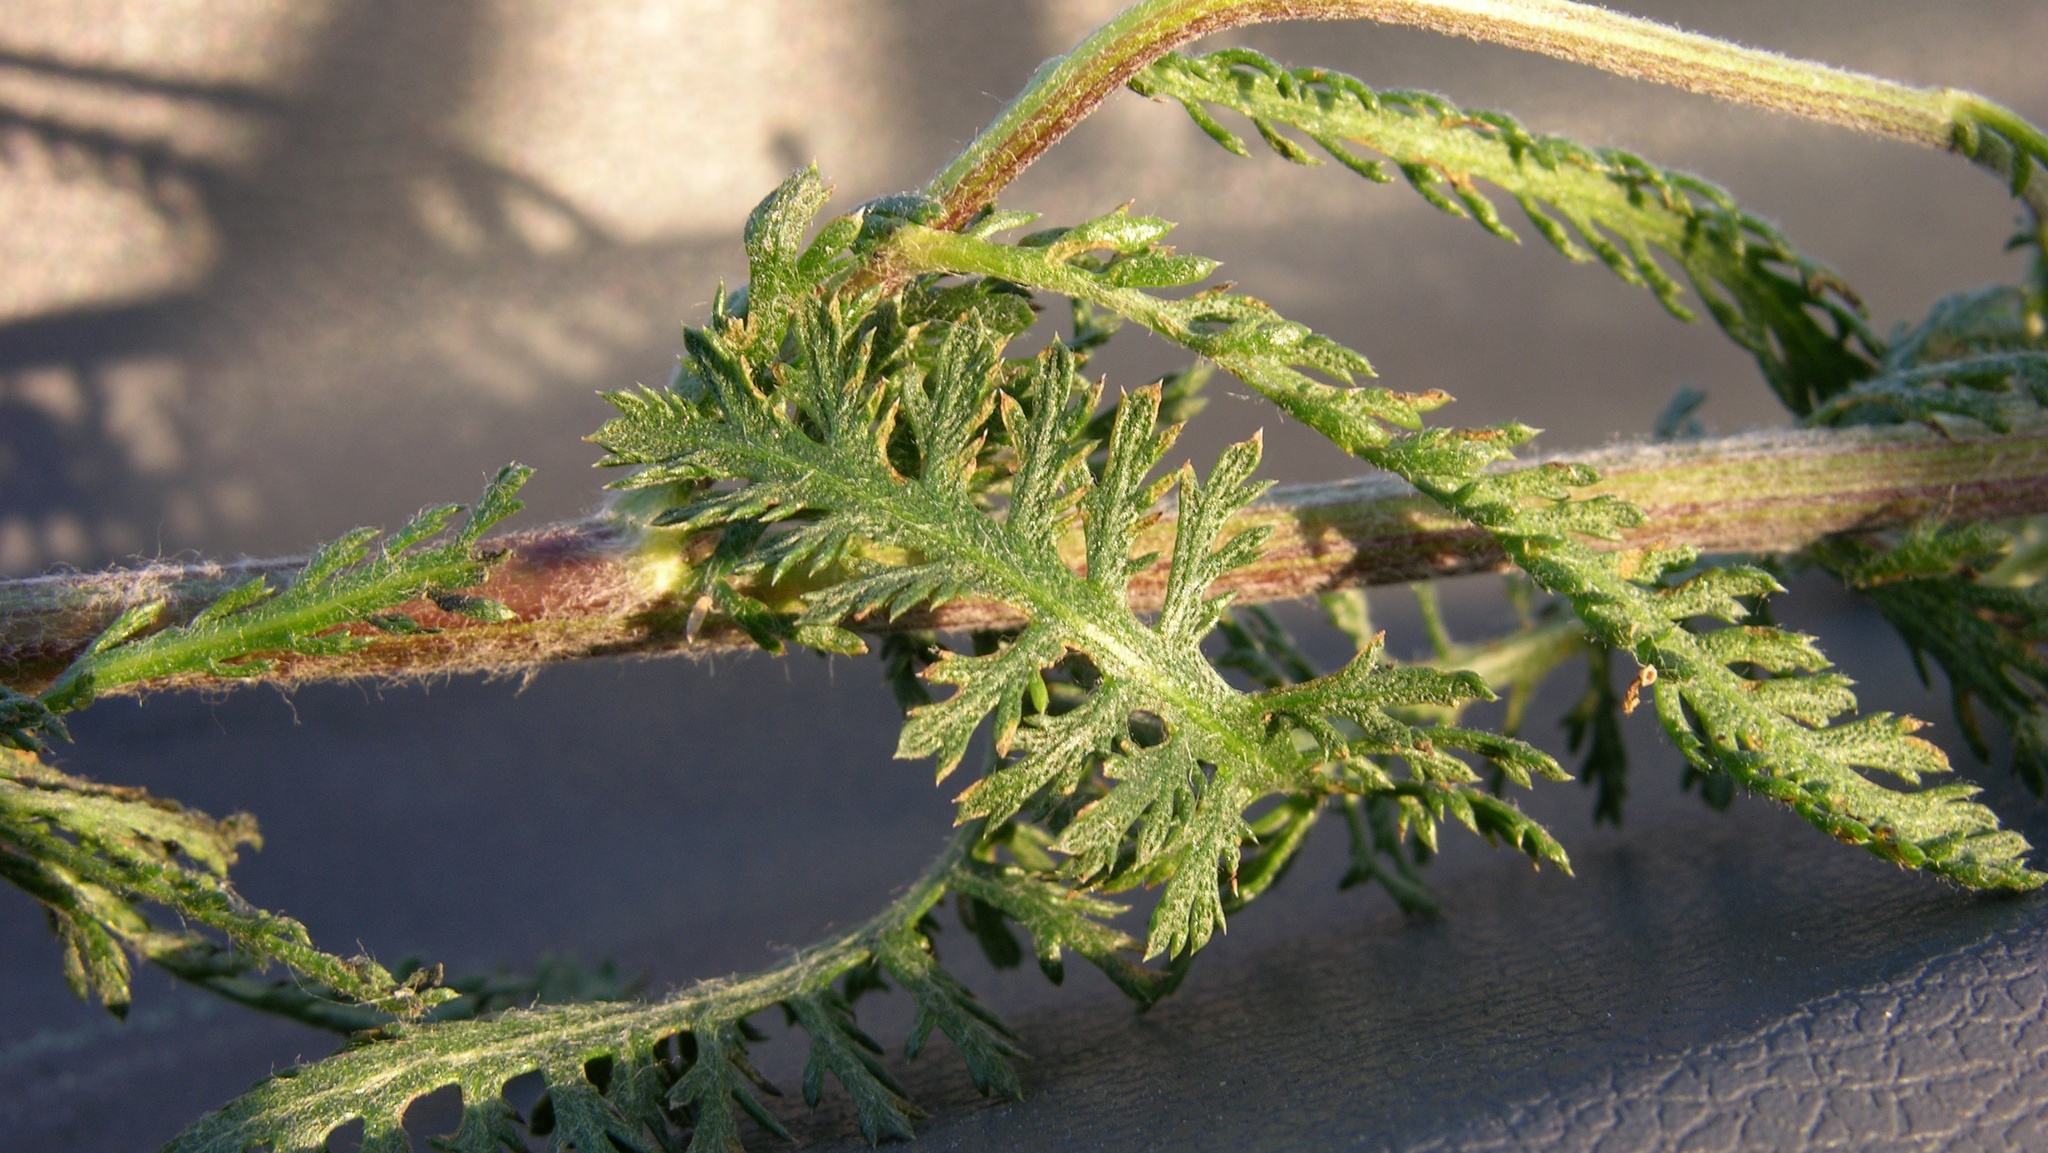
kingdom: Plantae
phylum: Tracheophyta
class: Magnoliopsida
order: Asterales
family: Asteraceae
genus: Achillea
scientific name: Achillea millefolium
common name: Yarrow
